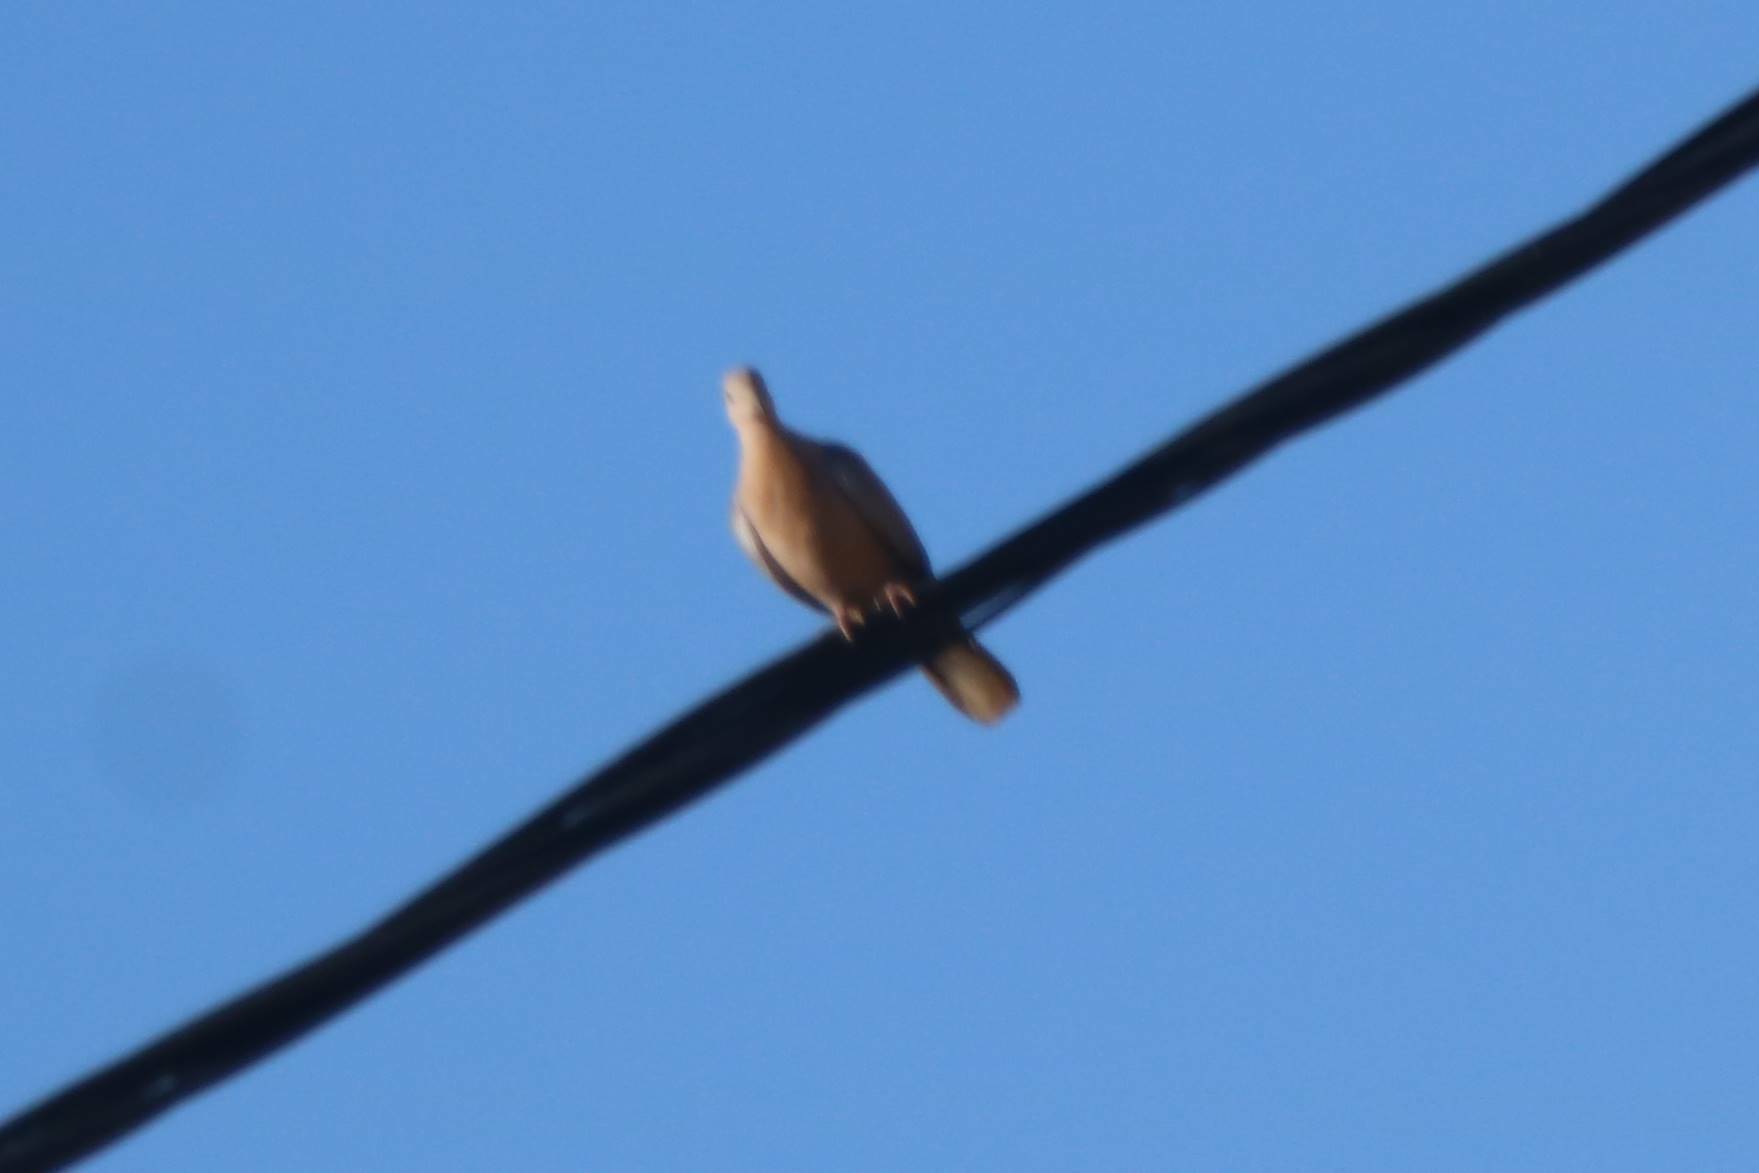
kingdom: Animalia
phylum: Chordata
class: Aves
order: Columbiformes
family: Columbidae
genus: Spilopelia
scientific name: Spilopelia senegalensis
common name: Laughing dove
